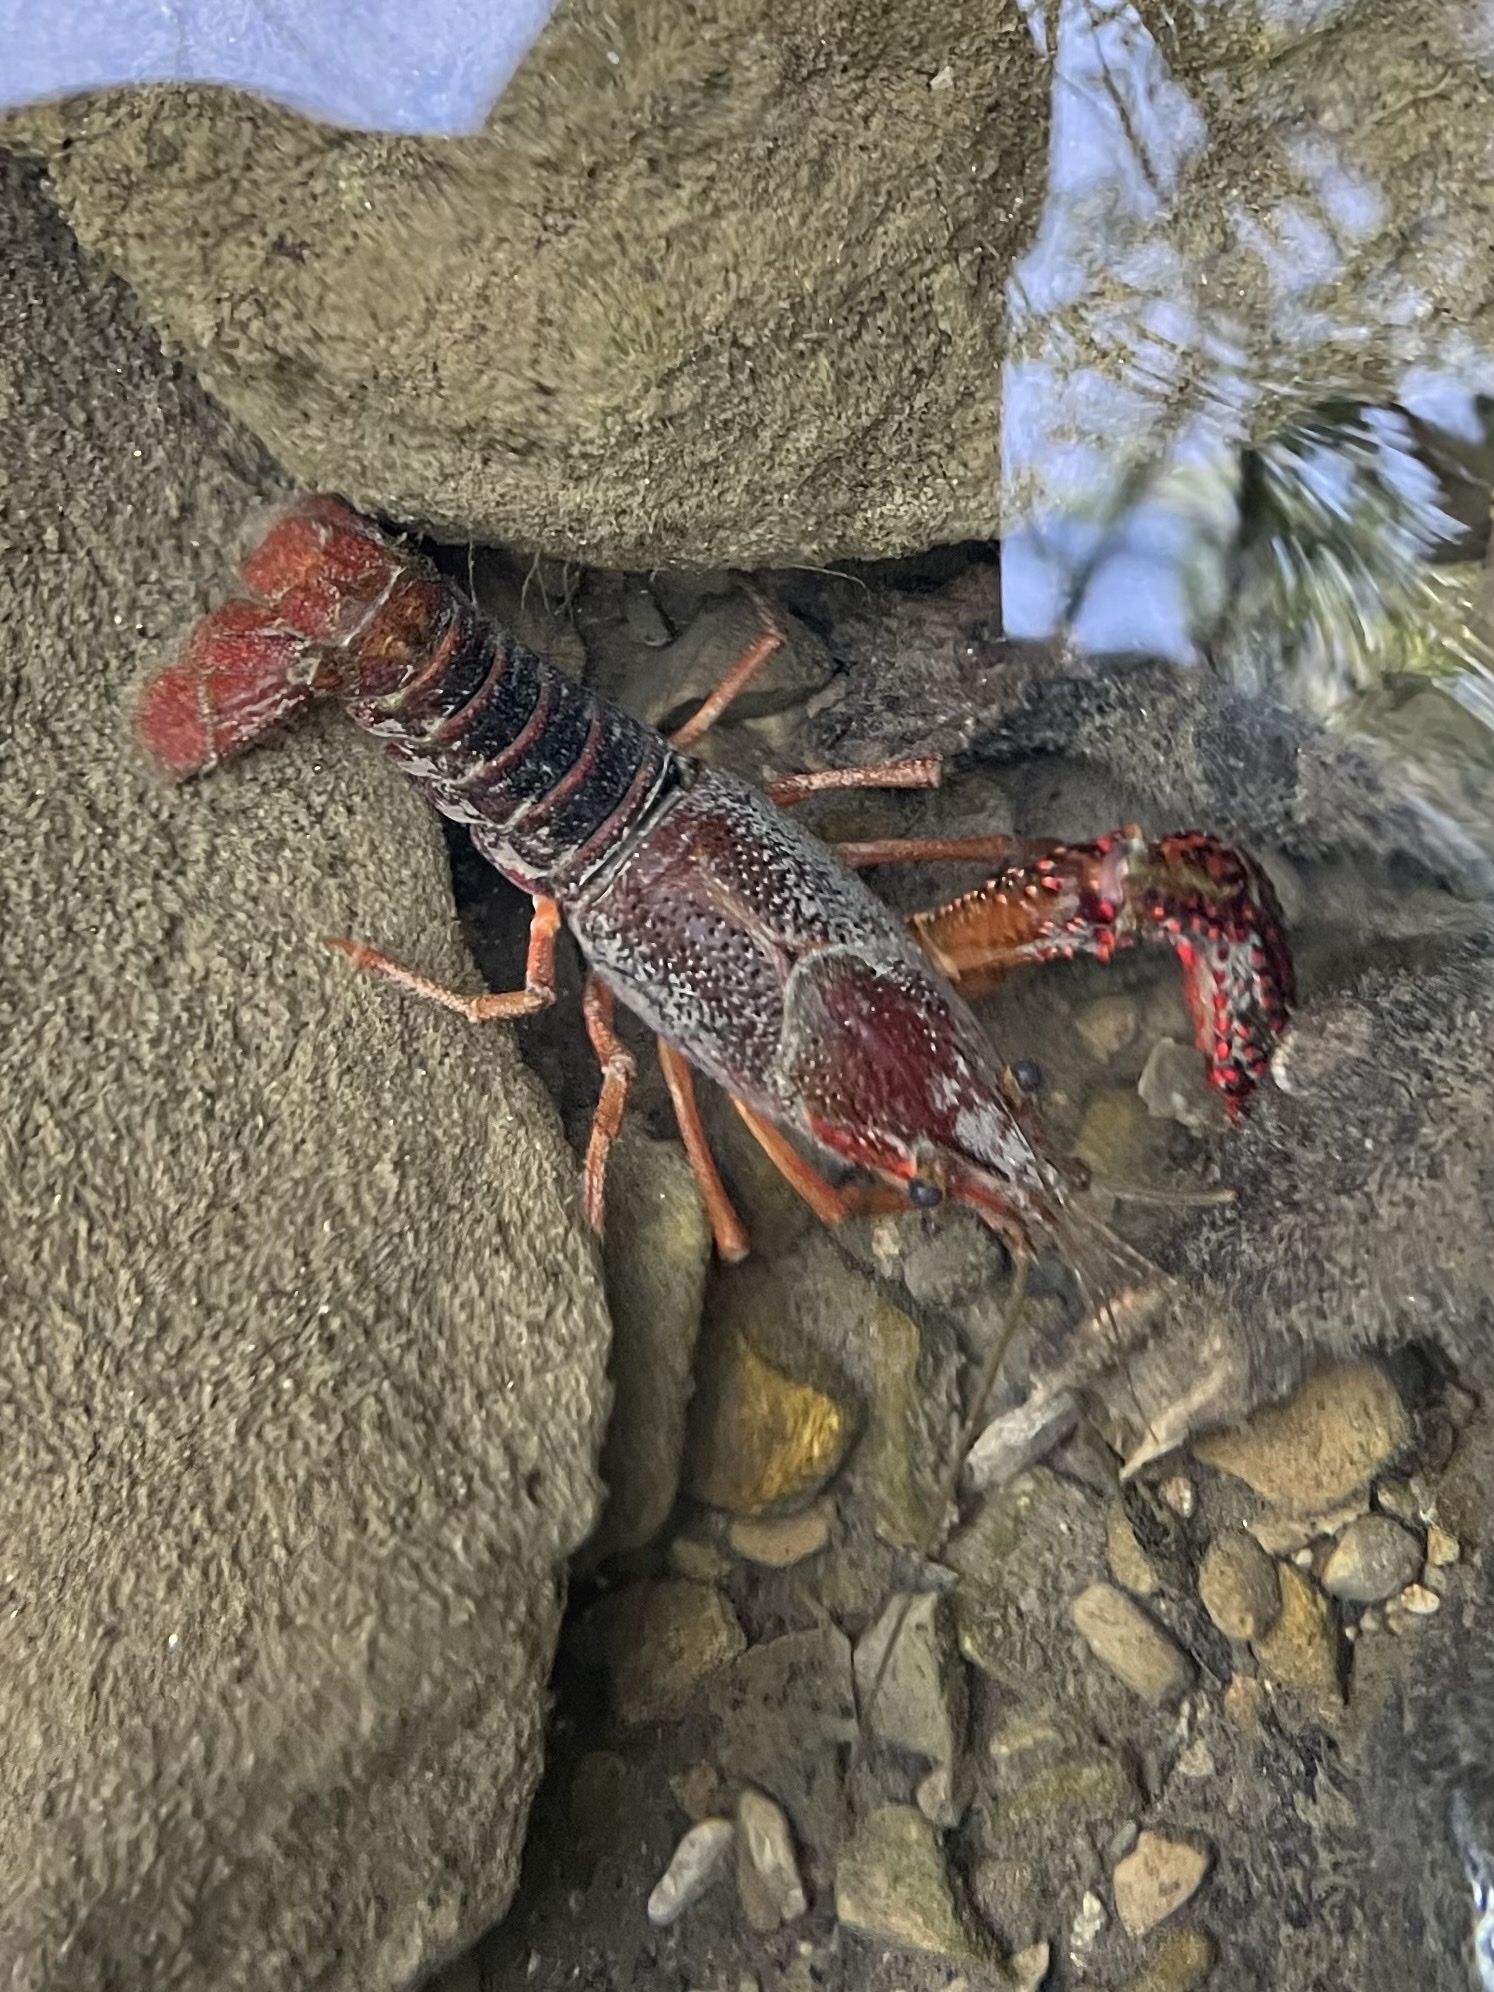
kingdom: Animalia
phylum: Arthropoda
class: Malacostraca
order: Decapoda
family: Cambaridae
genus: Procambarus
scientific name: Procambarus clarkii
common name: Red swamp crayfish
